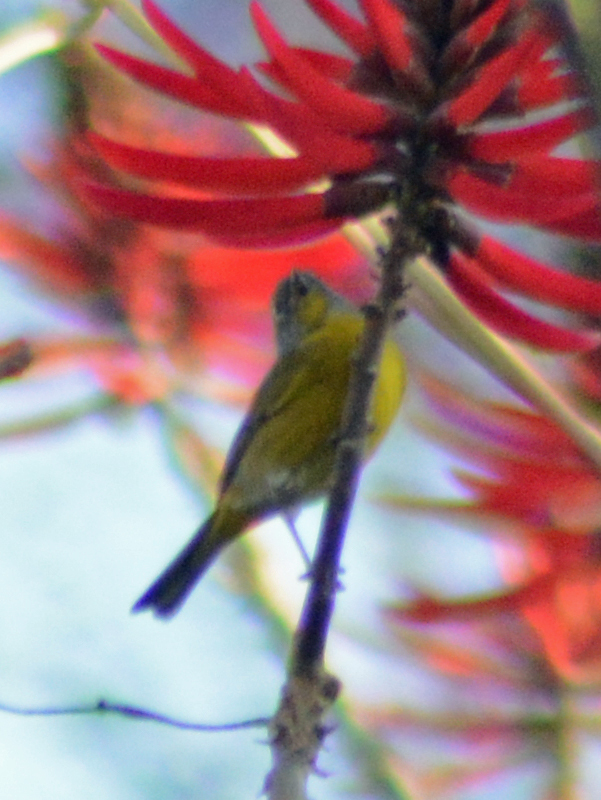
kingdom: Animalia
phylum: Chordata
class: Aves
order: Passeriformes
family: Parulidae
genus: Leiothlypis
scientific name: Leiothlypis ruficapilla
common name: Nashville warbler
